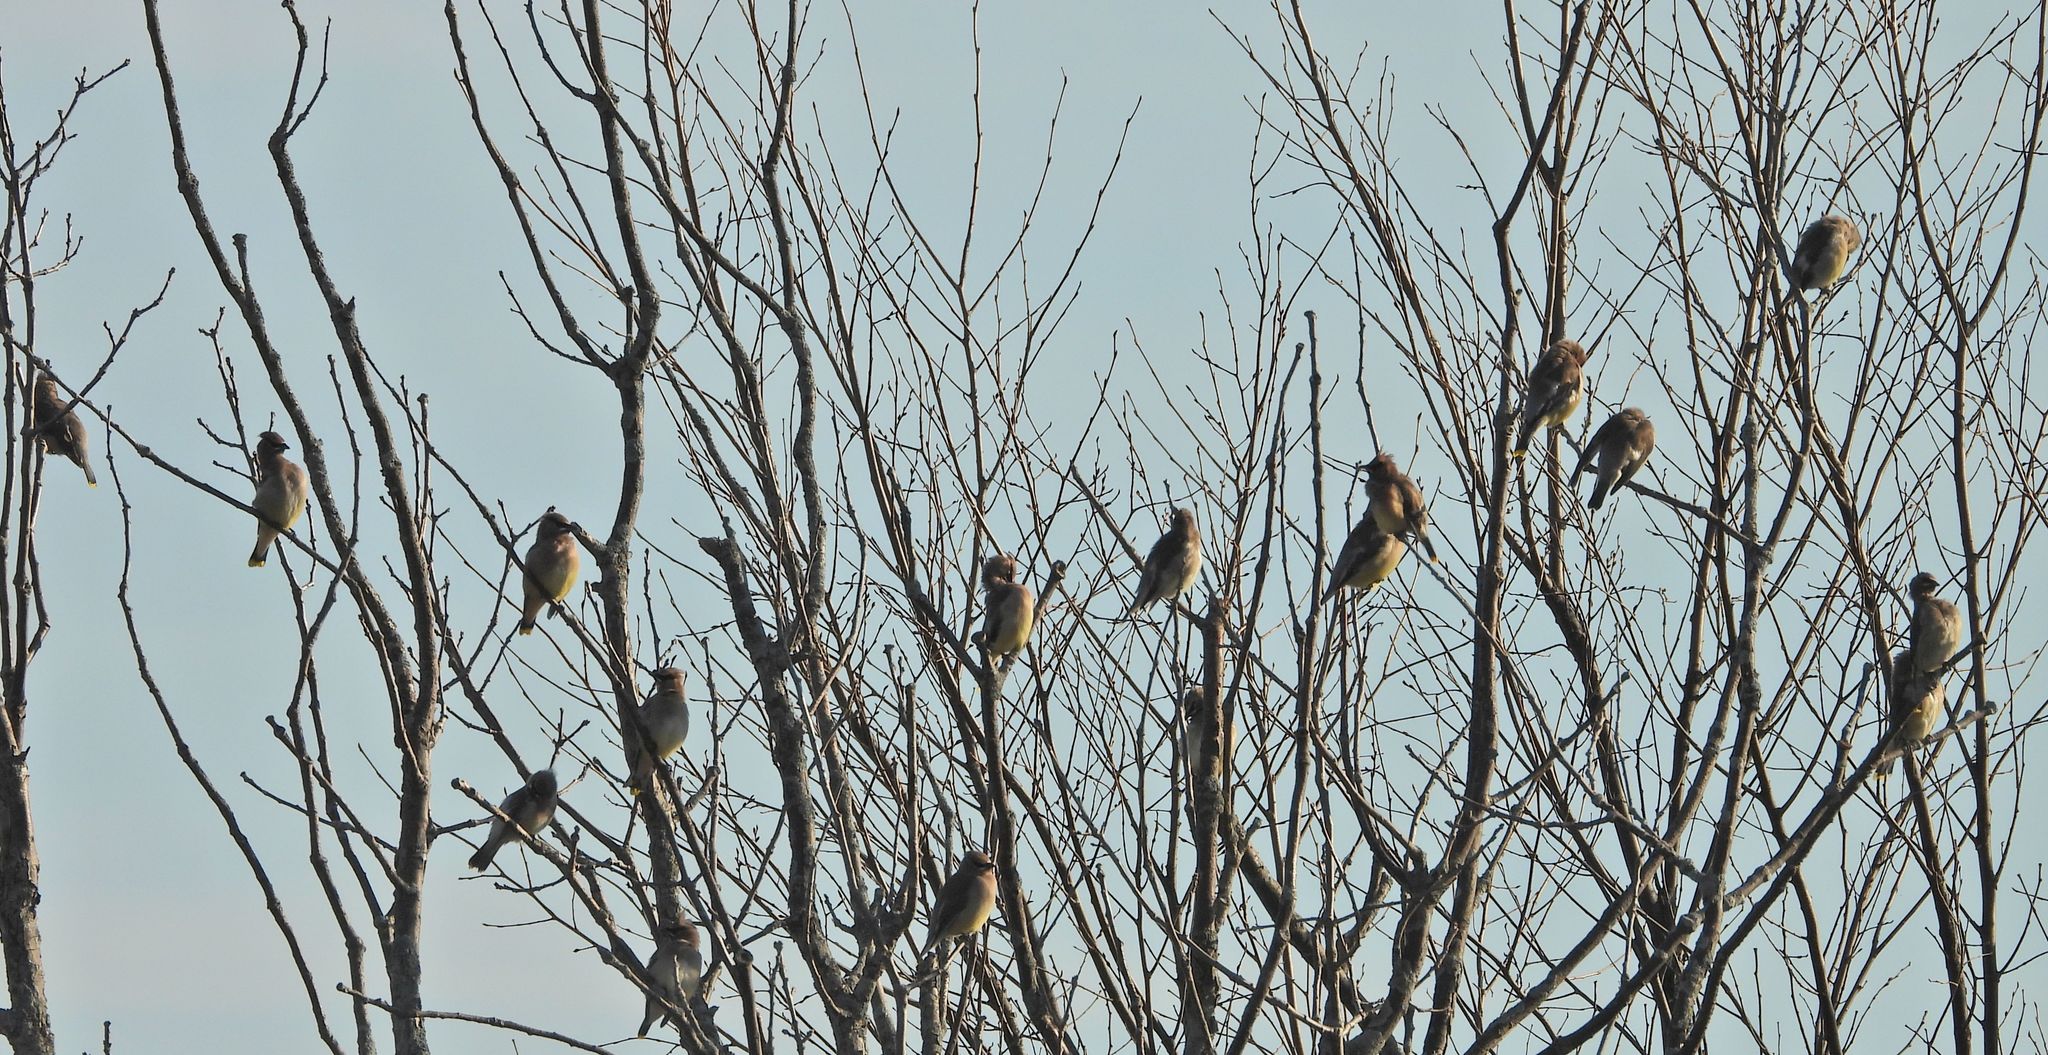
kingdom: Animalia
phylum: Chordata
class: Aves
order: Passeriformes
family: Bombycillidae
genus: Bombycilla
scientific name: Bombycilla cedrorum
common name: Cedar waxwing
